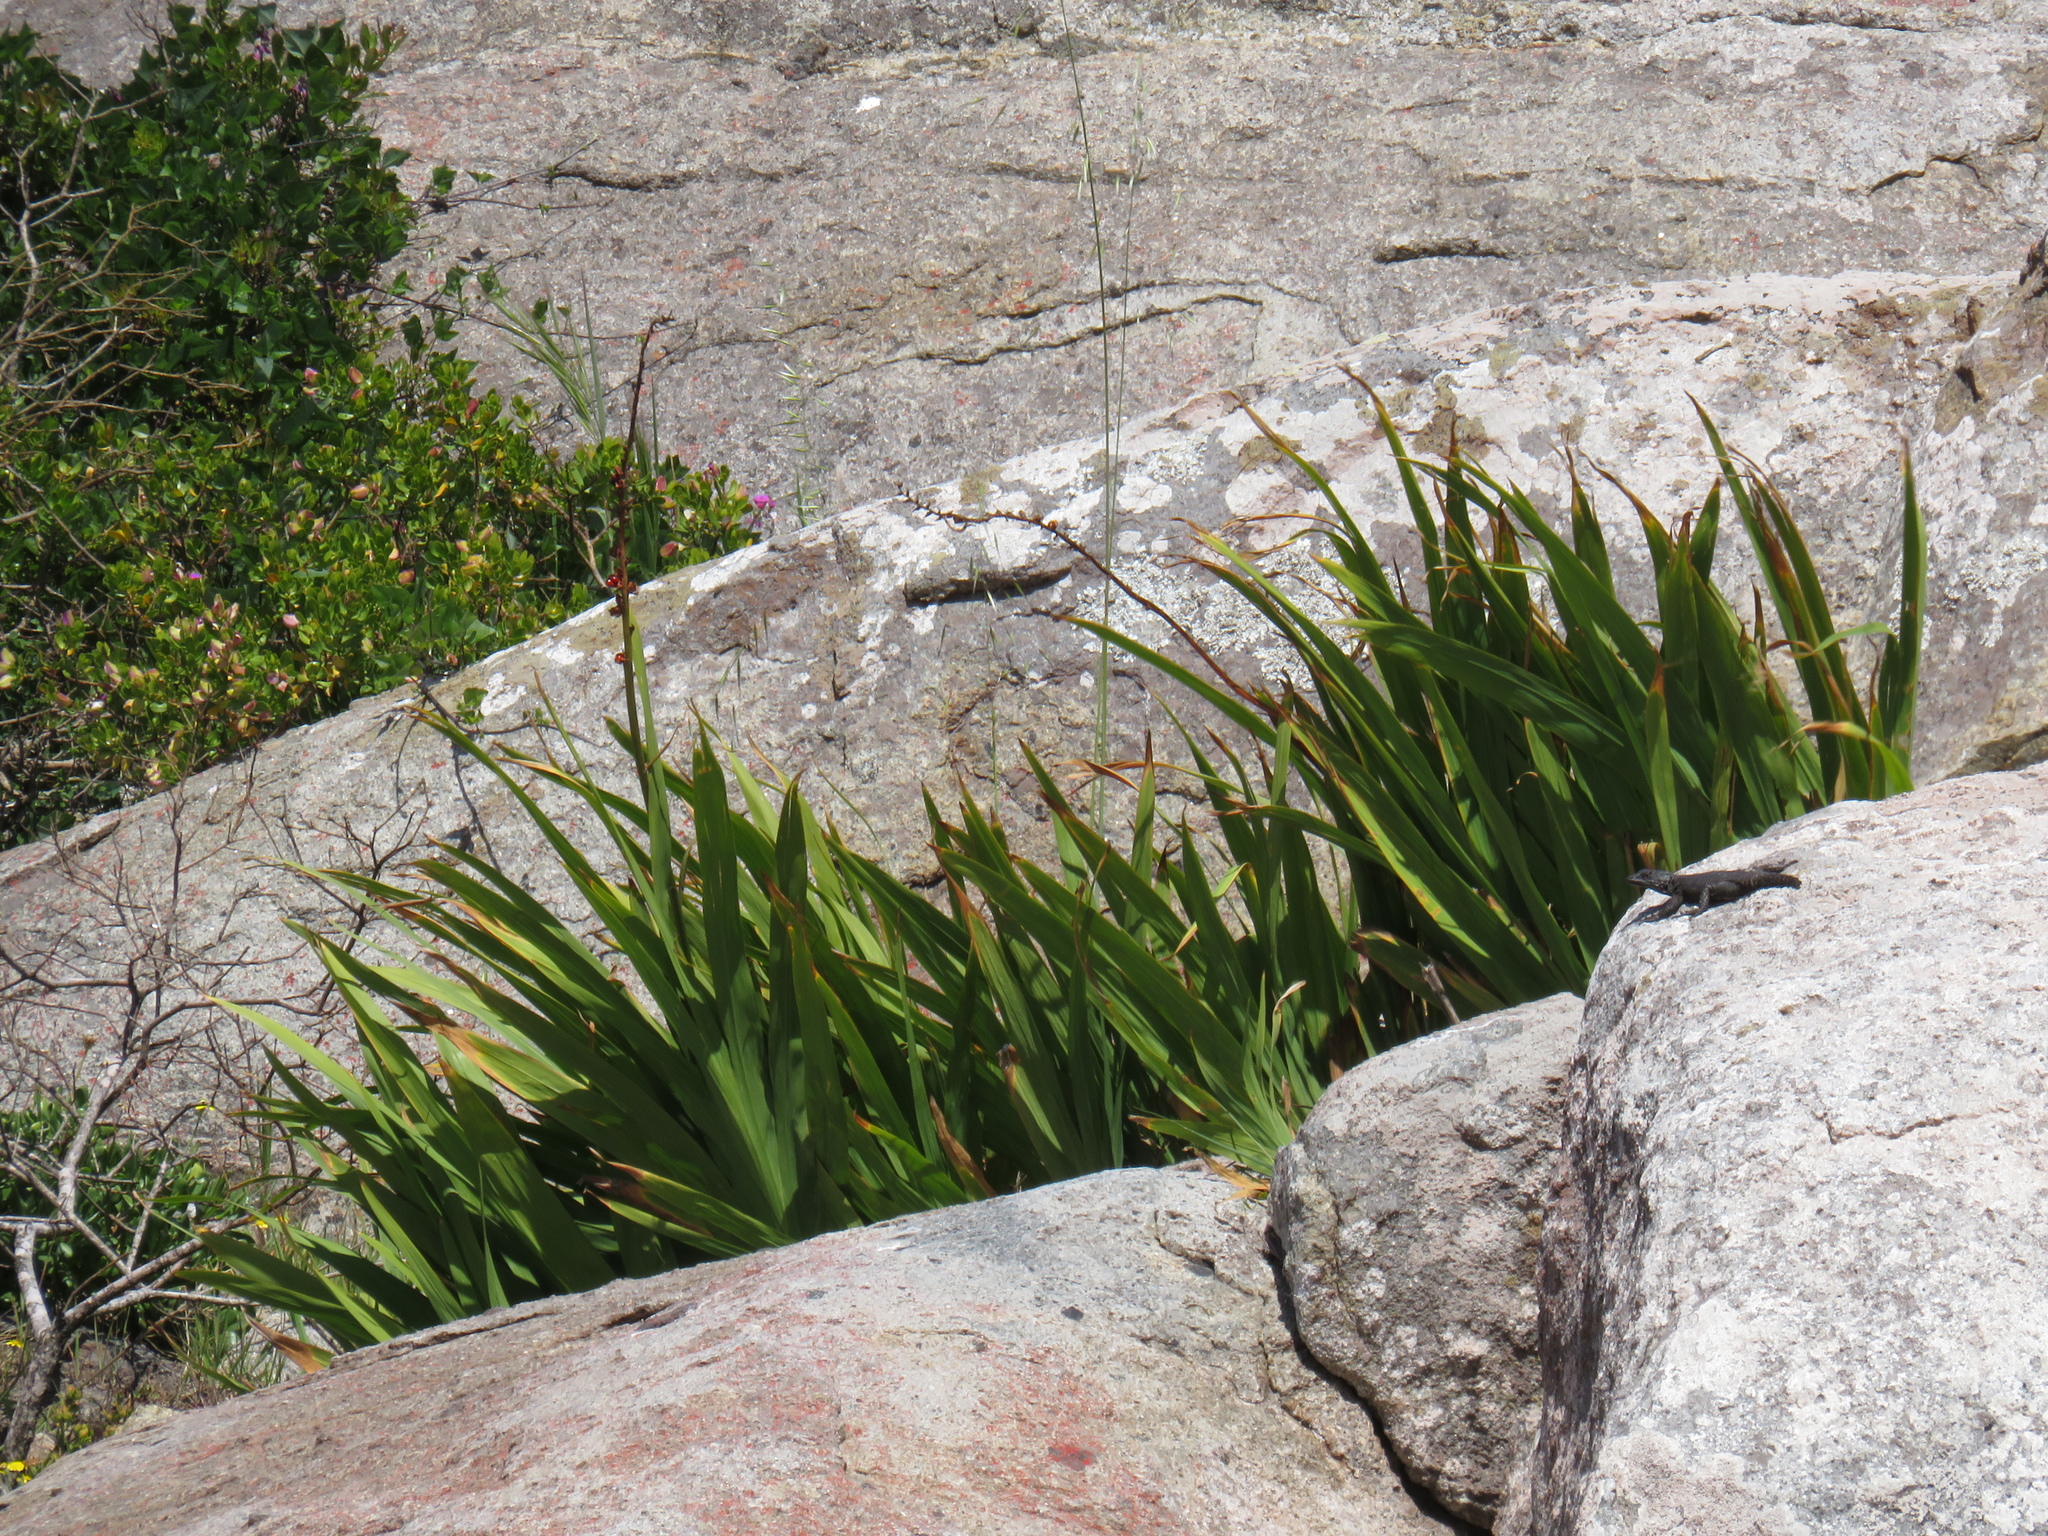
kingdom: Plantae
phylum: Tracheophyta
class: Liliopsida
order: Asparagales
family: Iridaceae
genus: Chasmanthe
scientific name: Chasmanthe floribunda
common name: African cornflag
